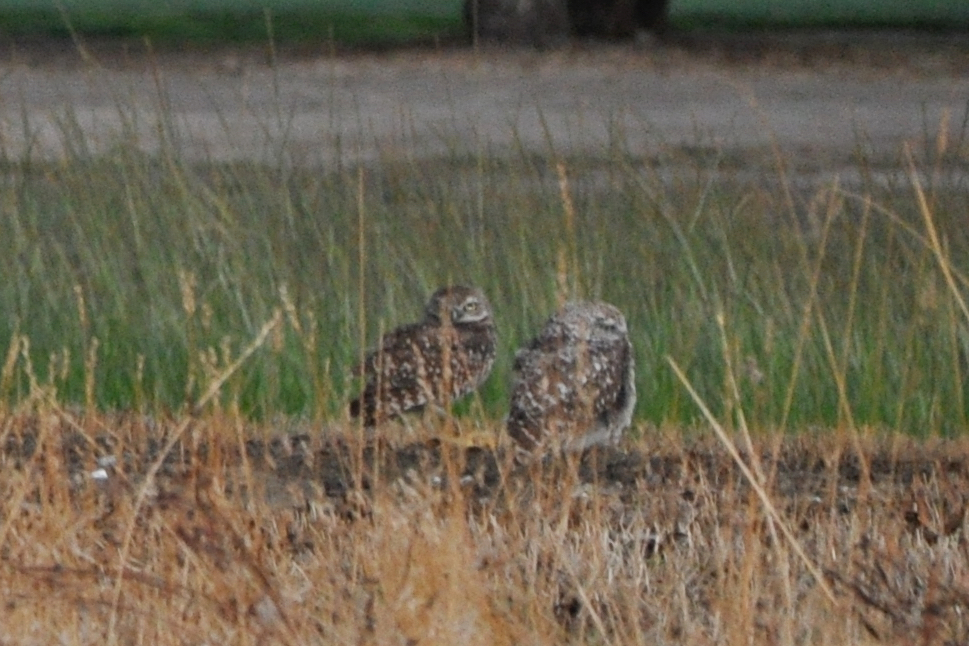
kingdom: Animalia
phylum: Chordata
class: Aves
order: Strigiformes
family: Strigidae
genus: Athene
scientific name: Athene cunicularia
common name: Burrowing owl
